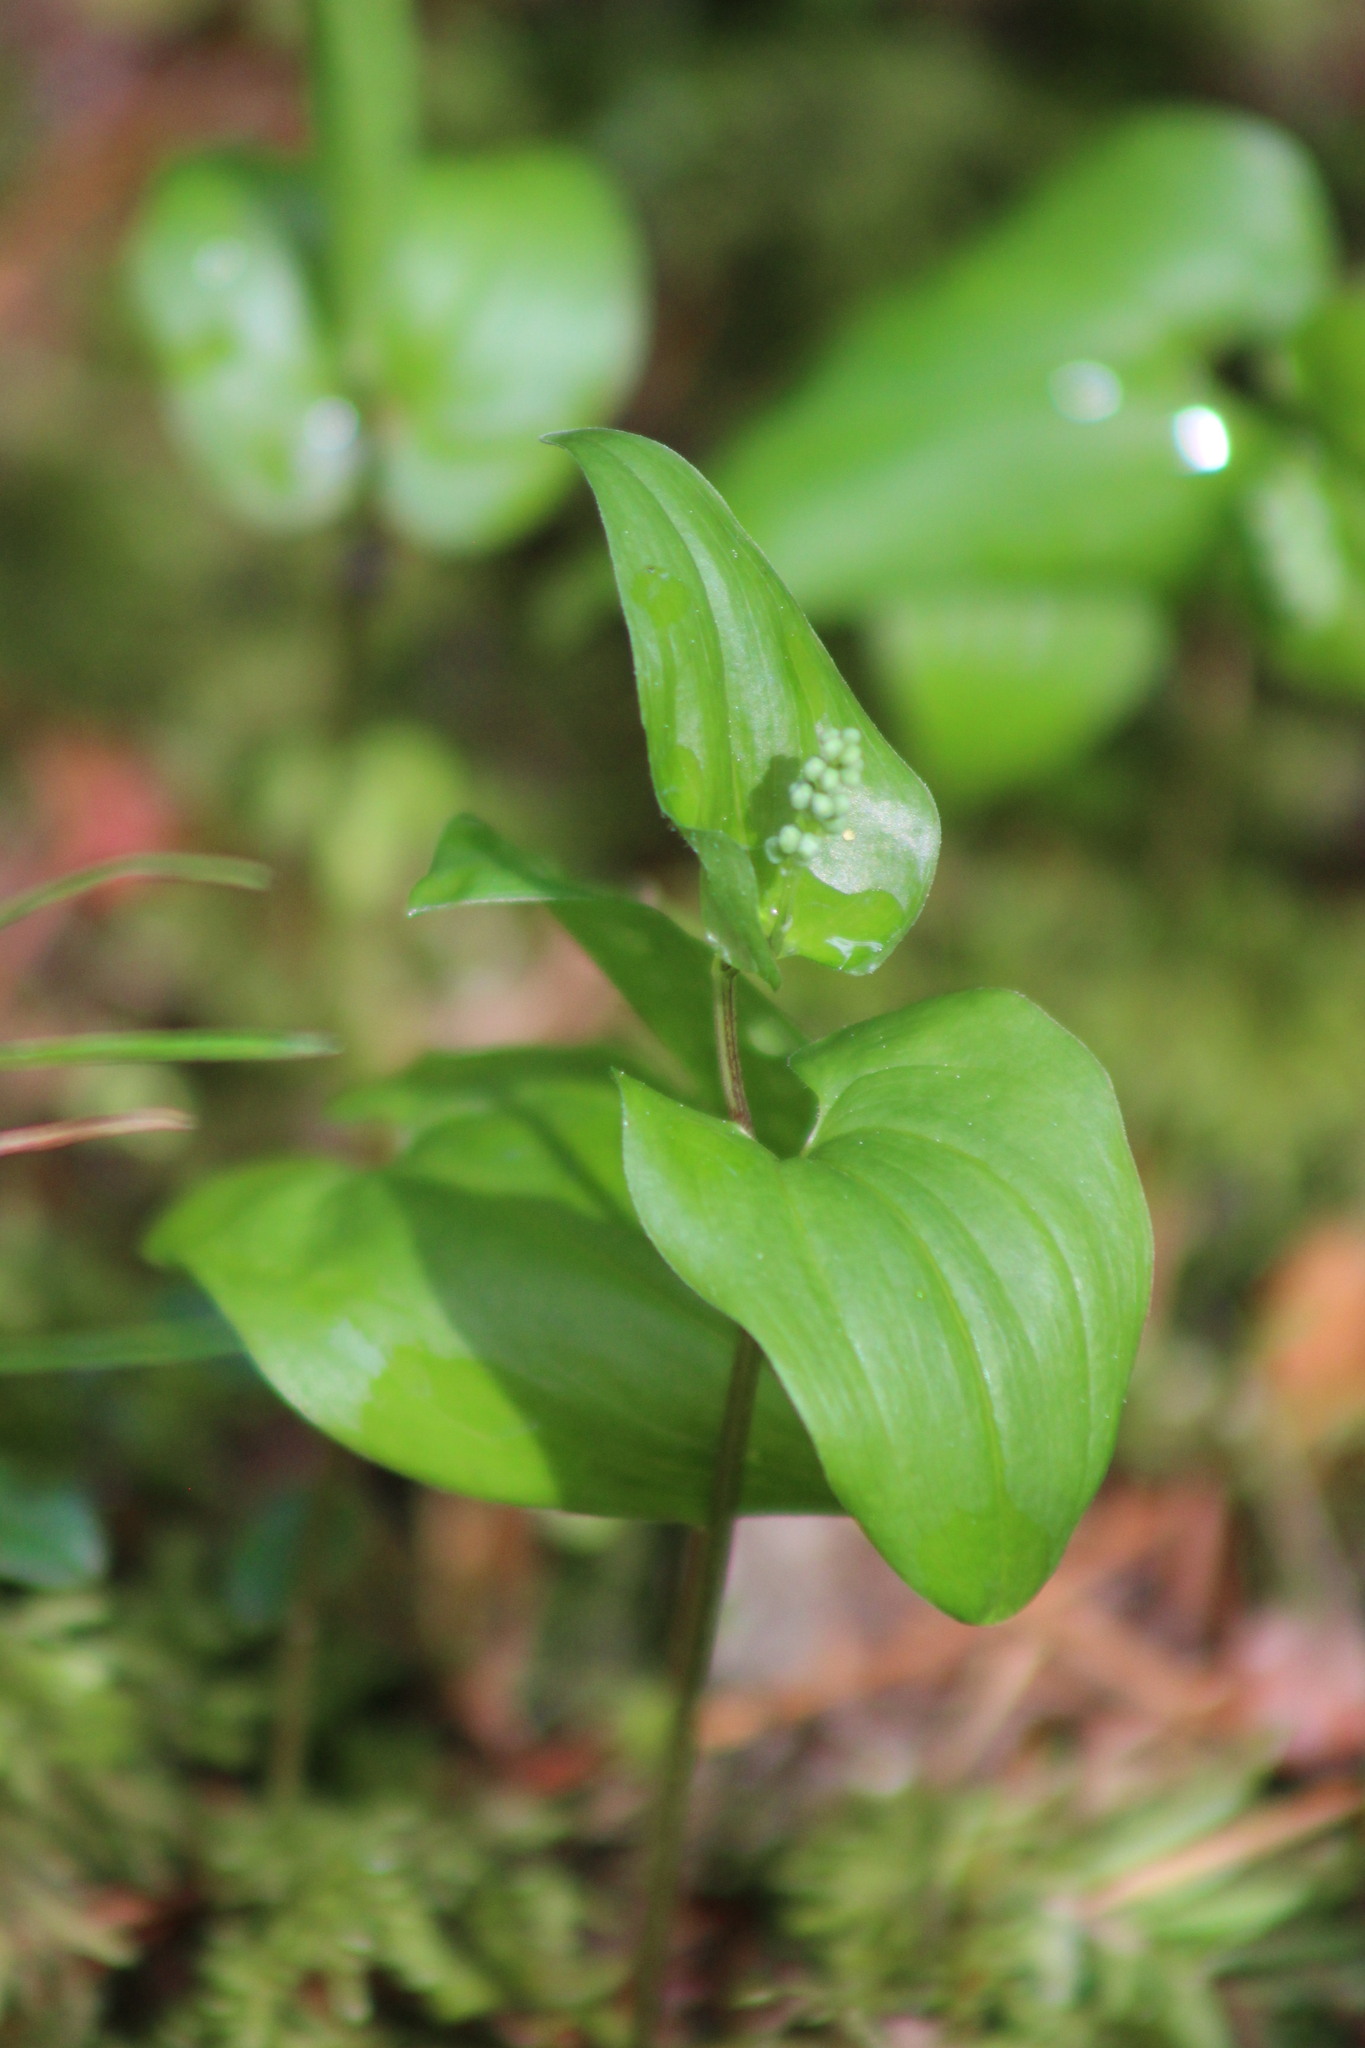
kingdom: Plantae
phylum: Tracheophyta
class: Liliopsida
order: Asparagales
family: Asparagaceae
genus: Maianthemum
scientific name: Maianthemum bifolium
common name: May lily
